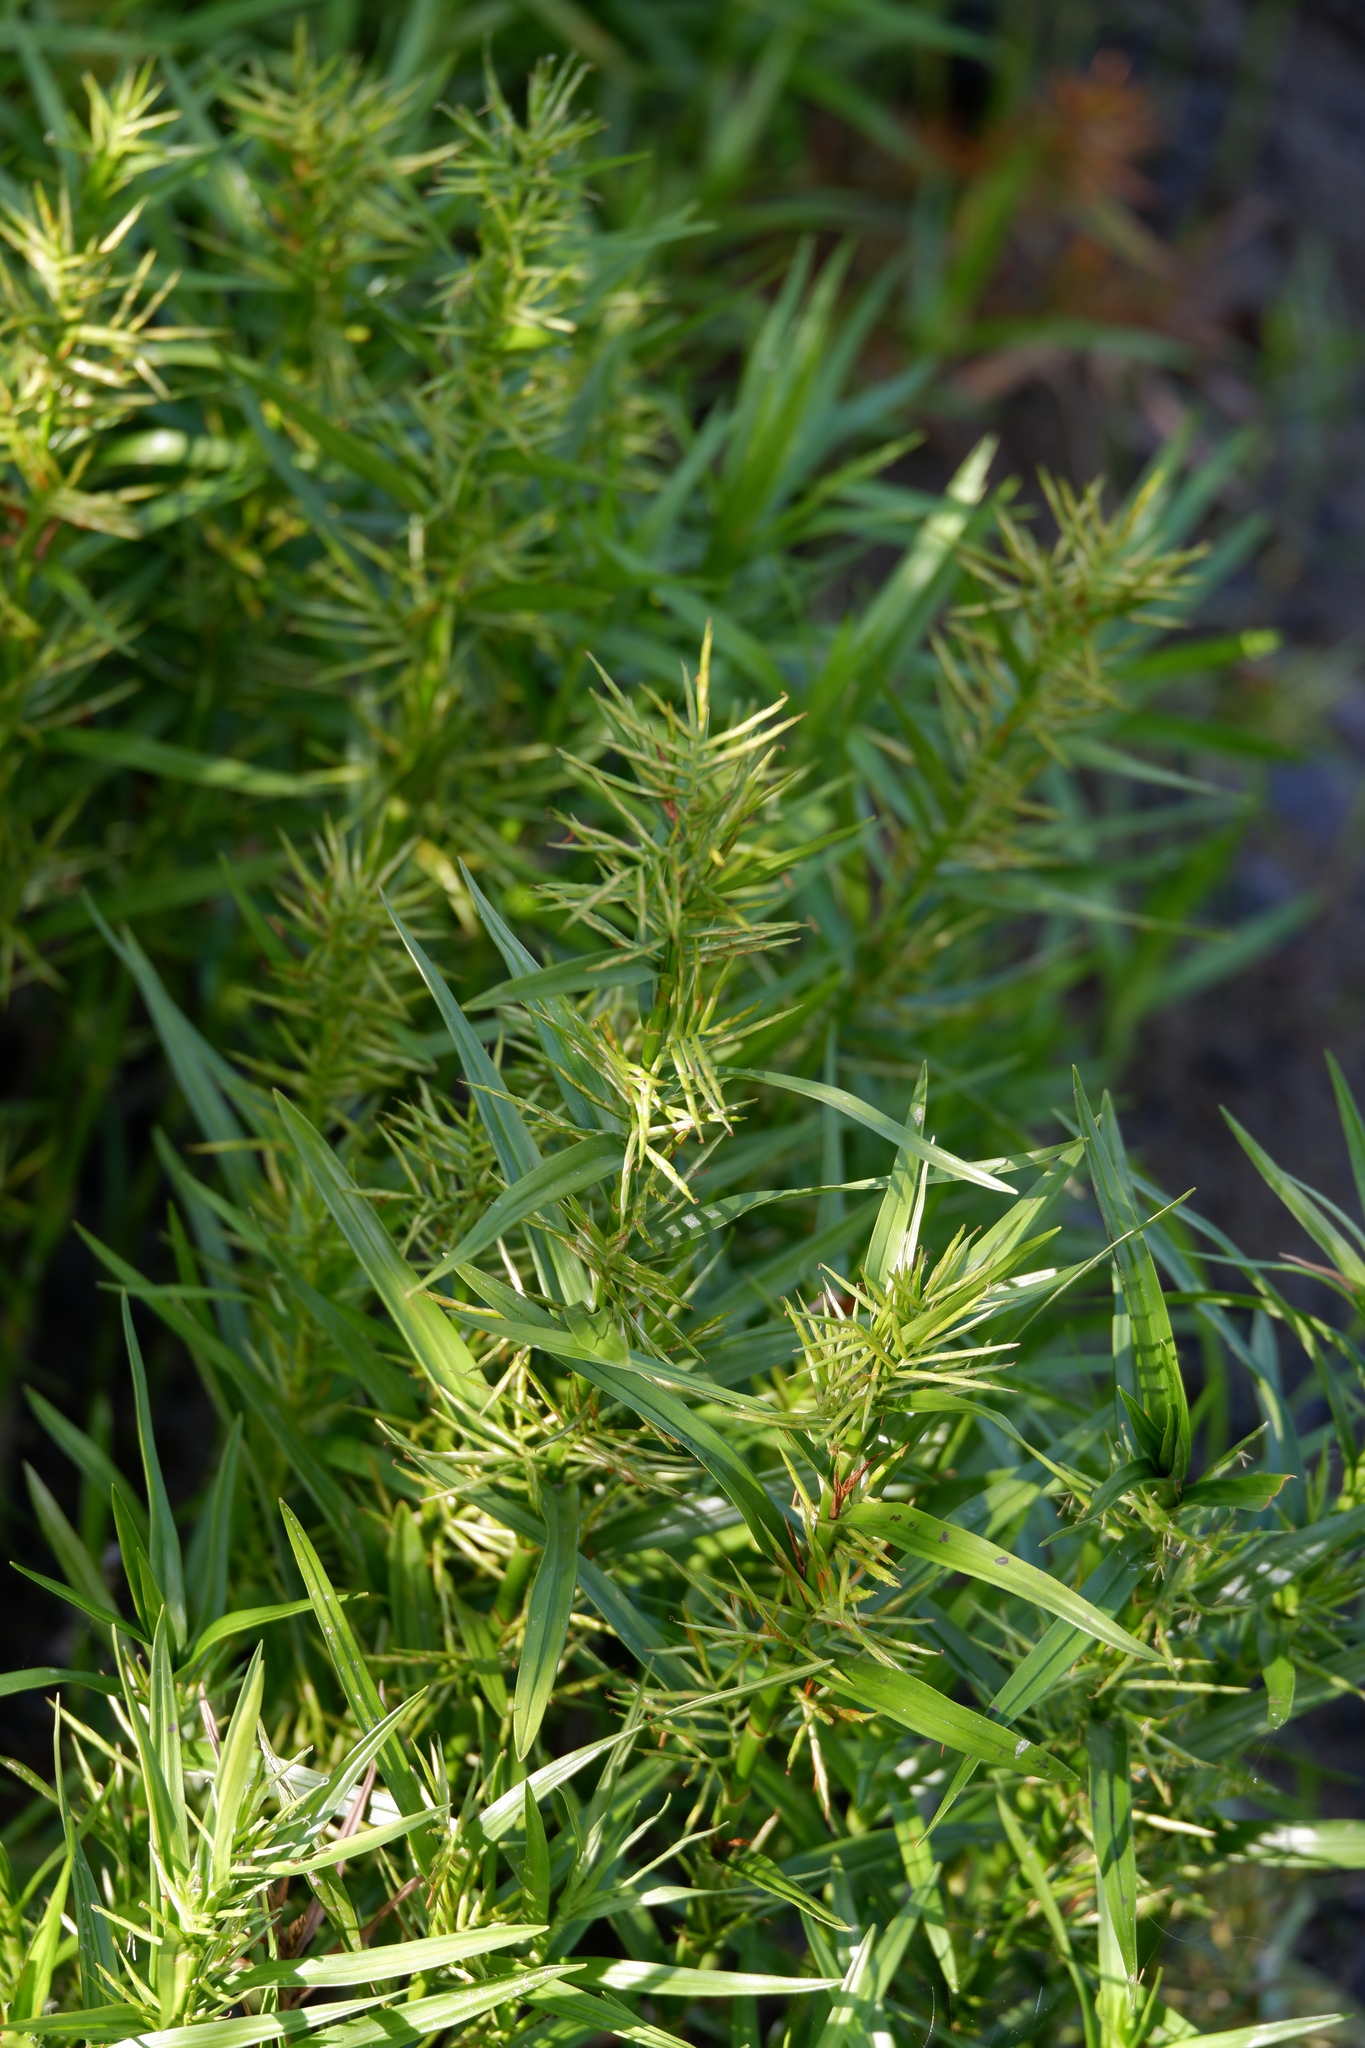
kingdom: Plantae
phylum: Tracheophyta
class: Liliopsida
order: Poales
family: Cyperaceae
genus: Dulichium
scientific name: Dulichium arundinaceum
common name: Three-way sedge
